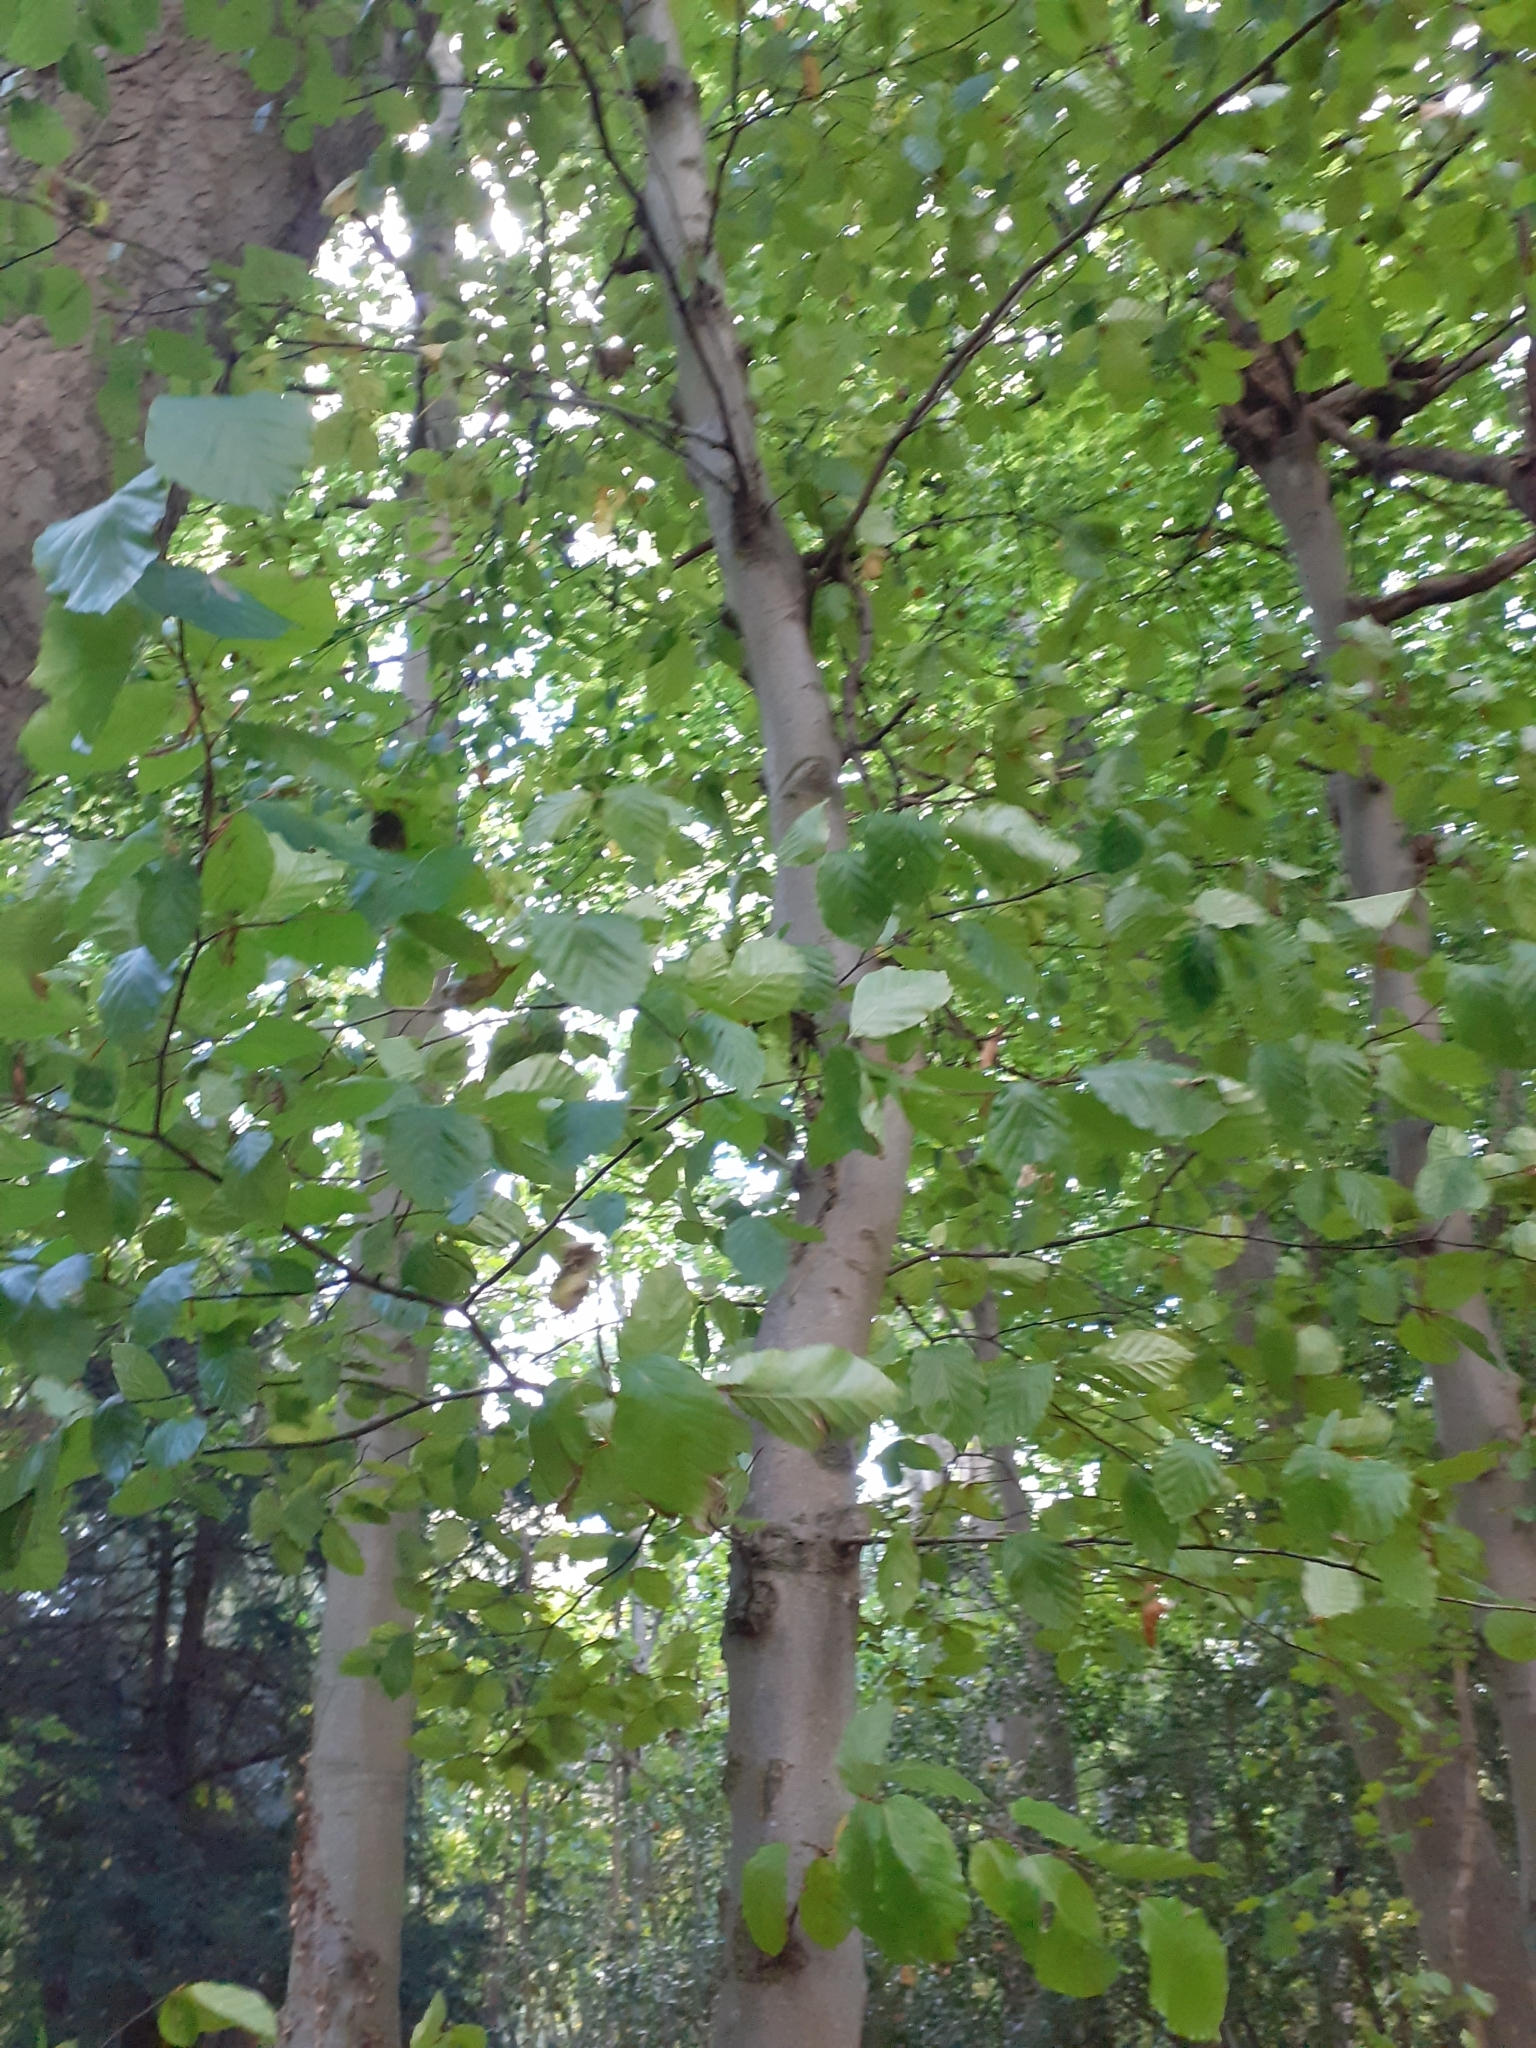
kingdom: Plantae
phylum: Tracheophyta
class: Magnoliopsida
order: Fagales
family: Fagaceae
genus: Fagus
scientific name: Fagus sylvatica
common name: Beech
